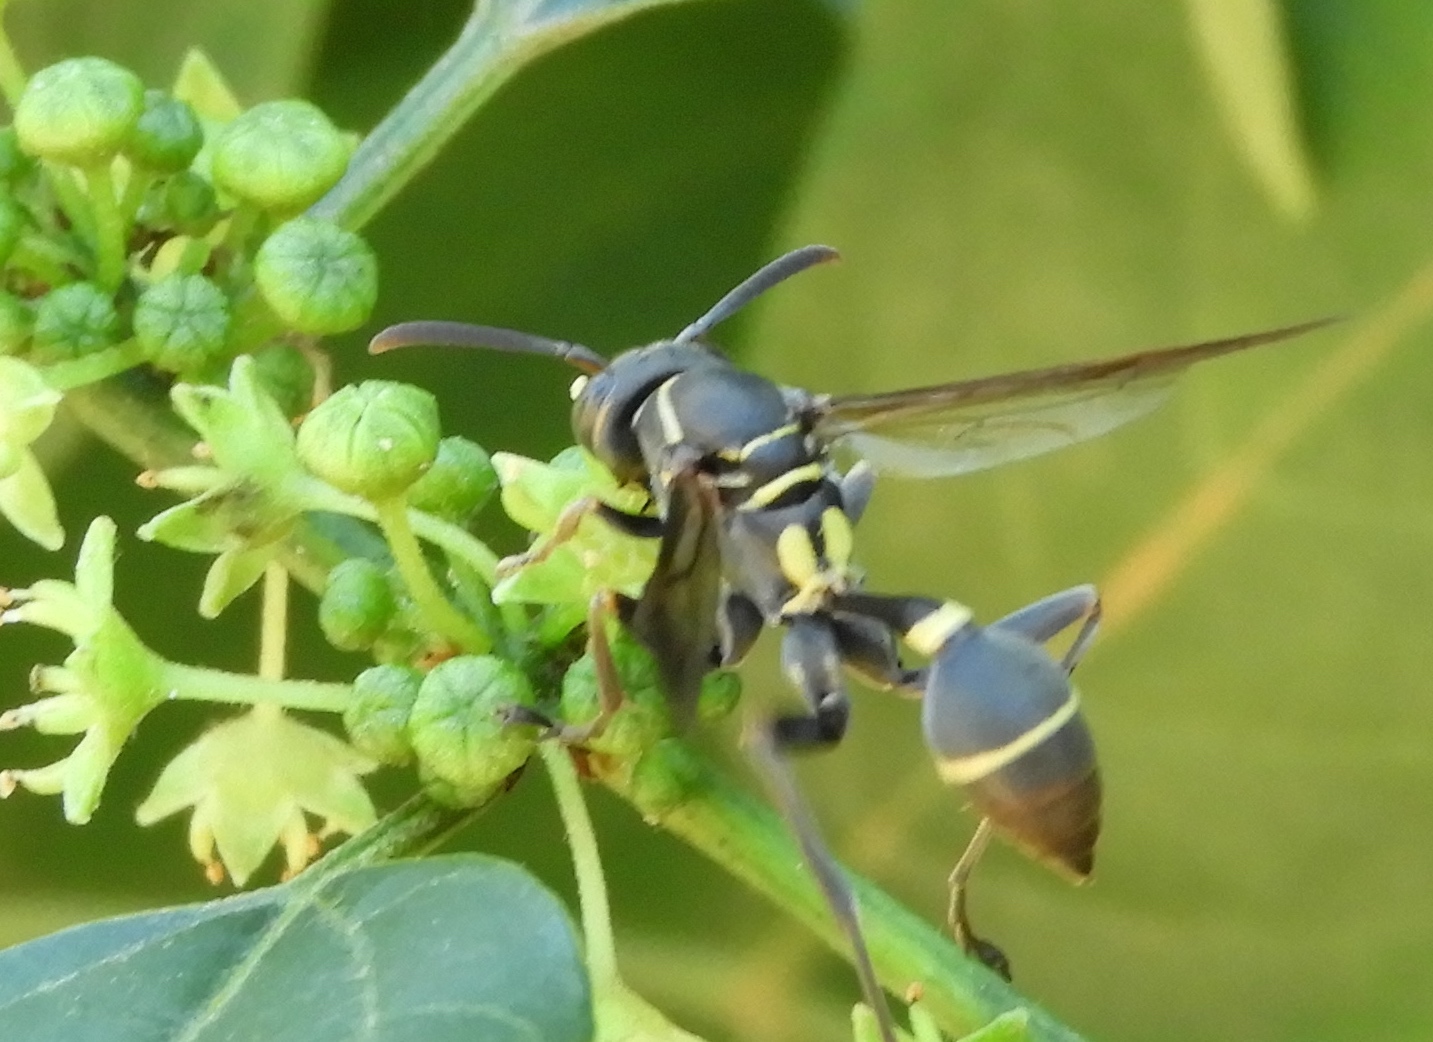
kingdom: Animalia
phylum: Arthropoda
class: Insecta
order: Hymenoptera
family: Vespidae
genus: Mischocyttarus
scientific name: Mischocyttarus
